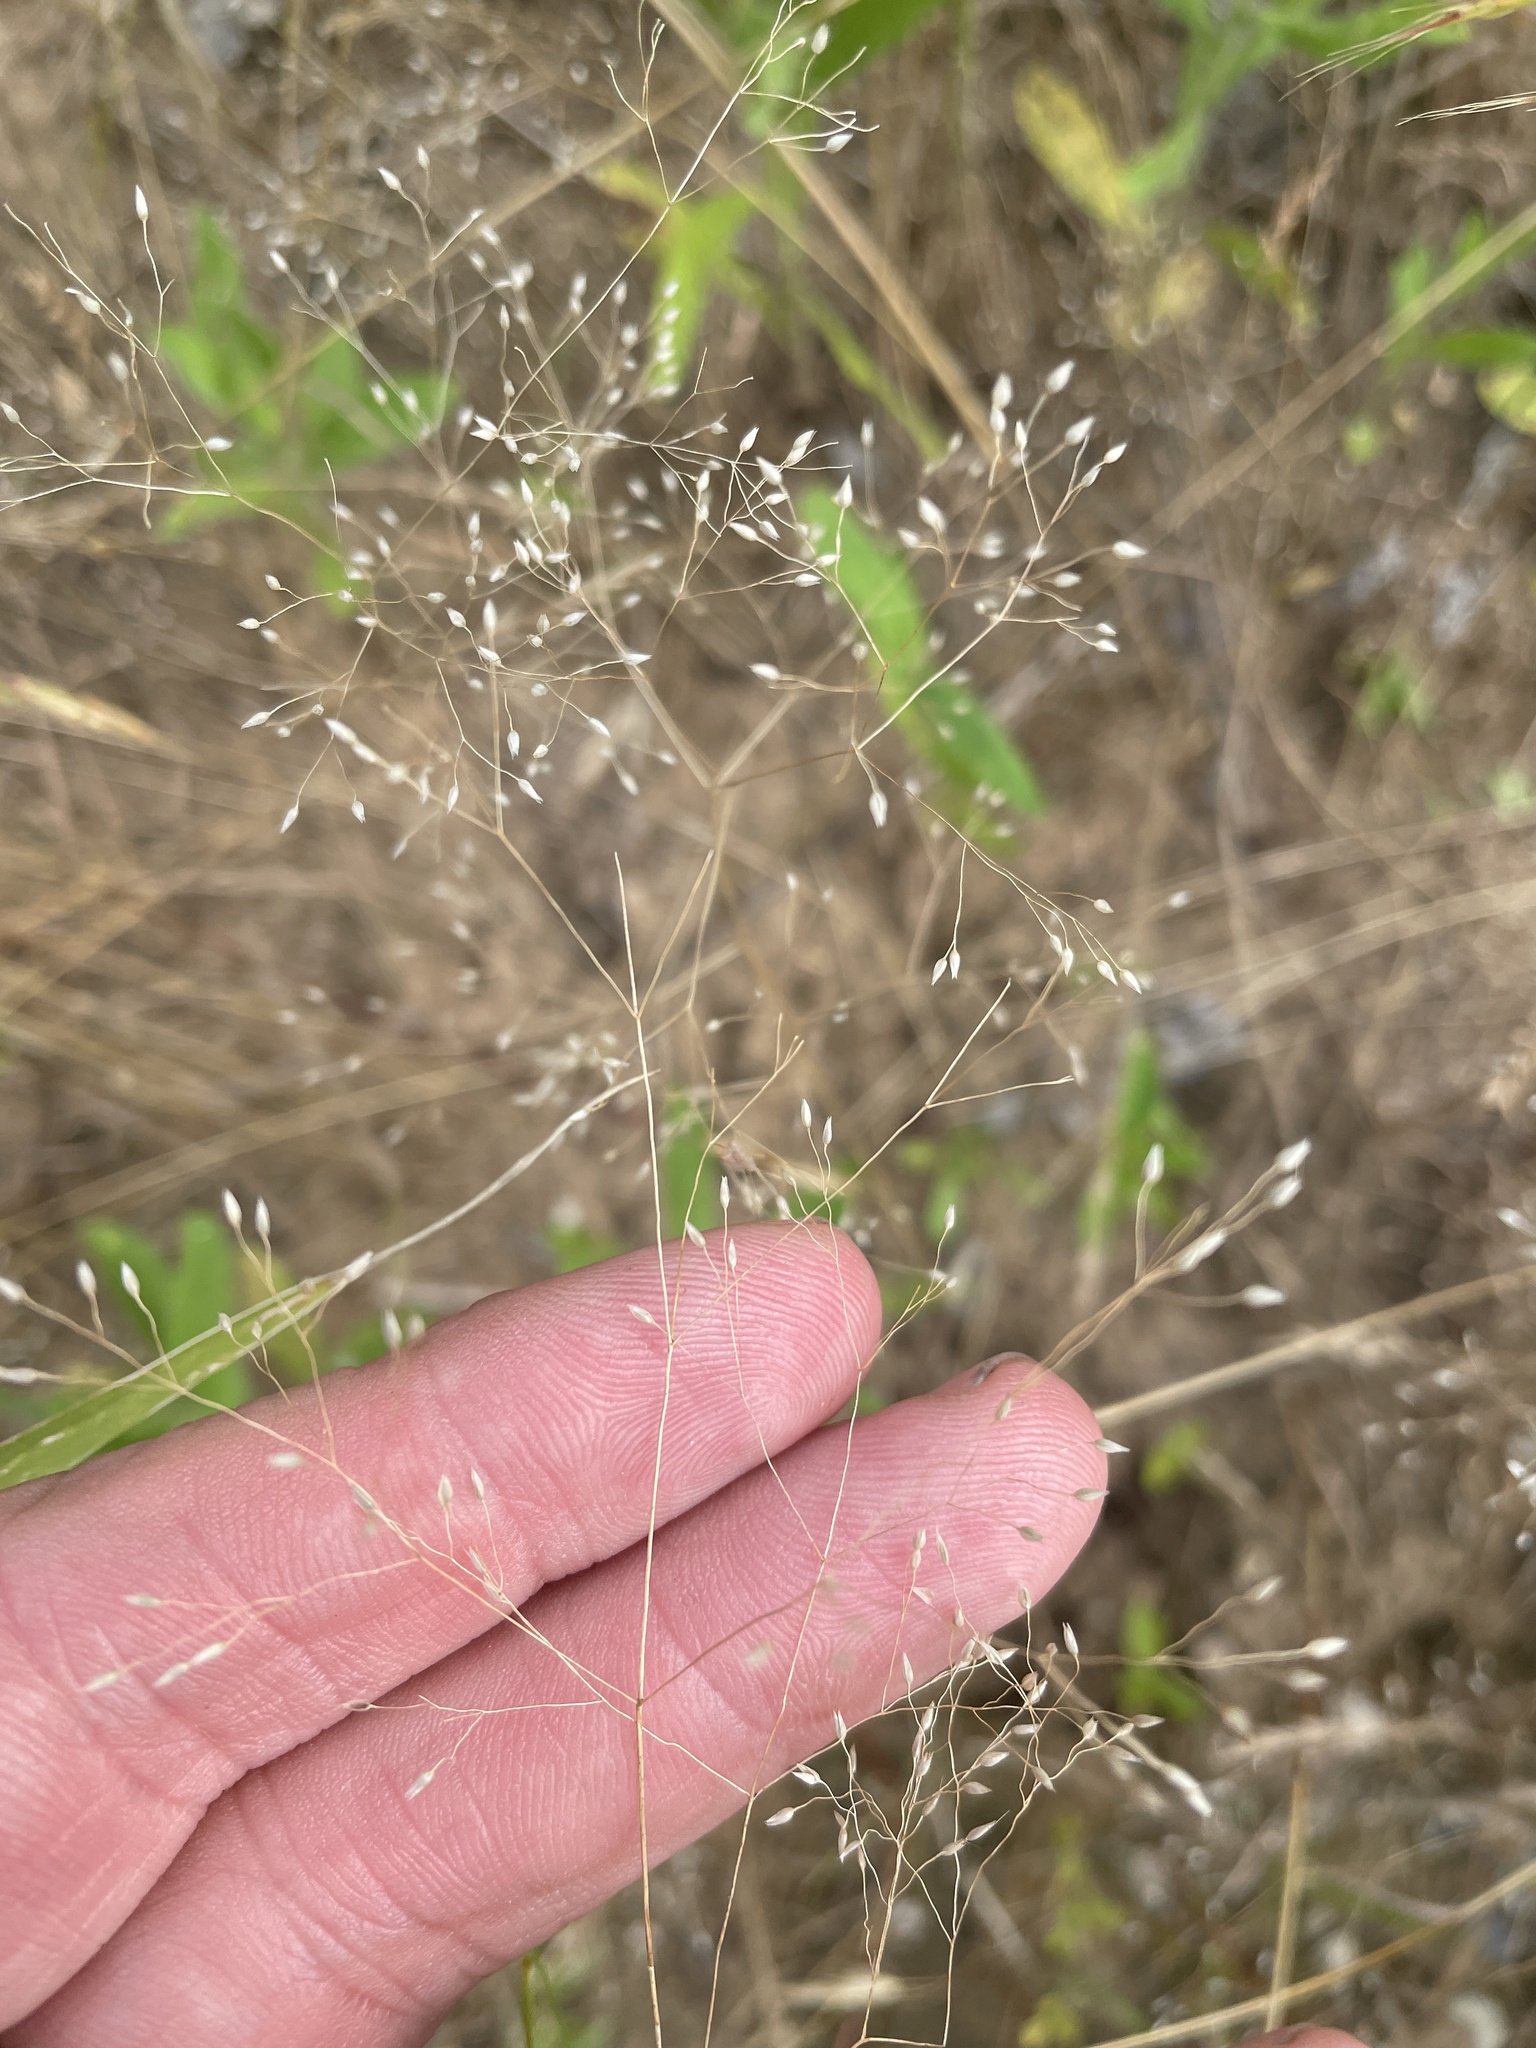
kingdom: Plantae
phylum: Tracheophyta
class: Liliopsida
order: Poales
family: Poaceae
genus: Aira
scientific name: Aira caryophyllea
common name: Silver hairgrass
